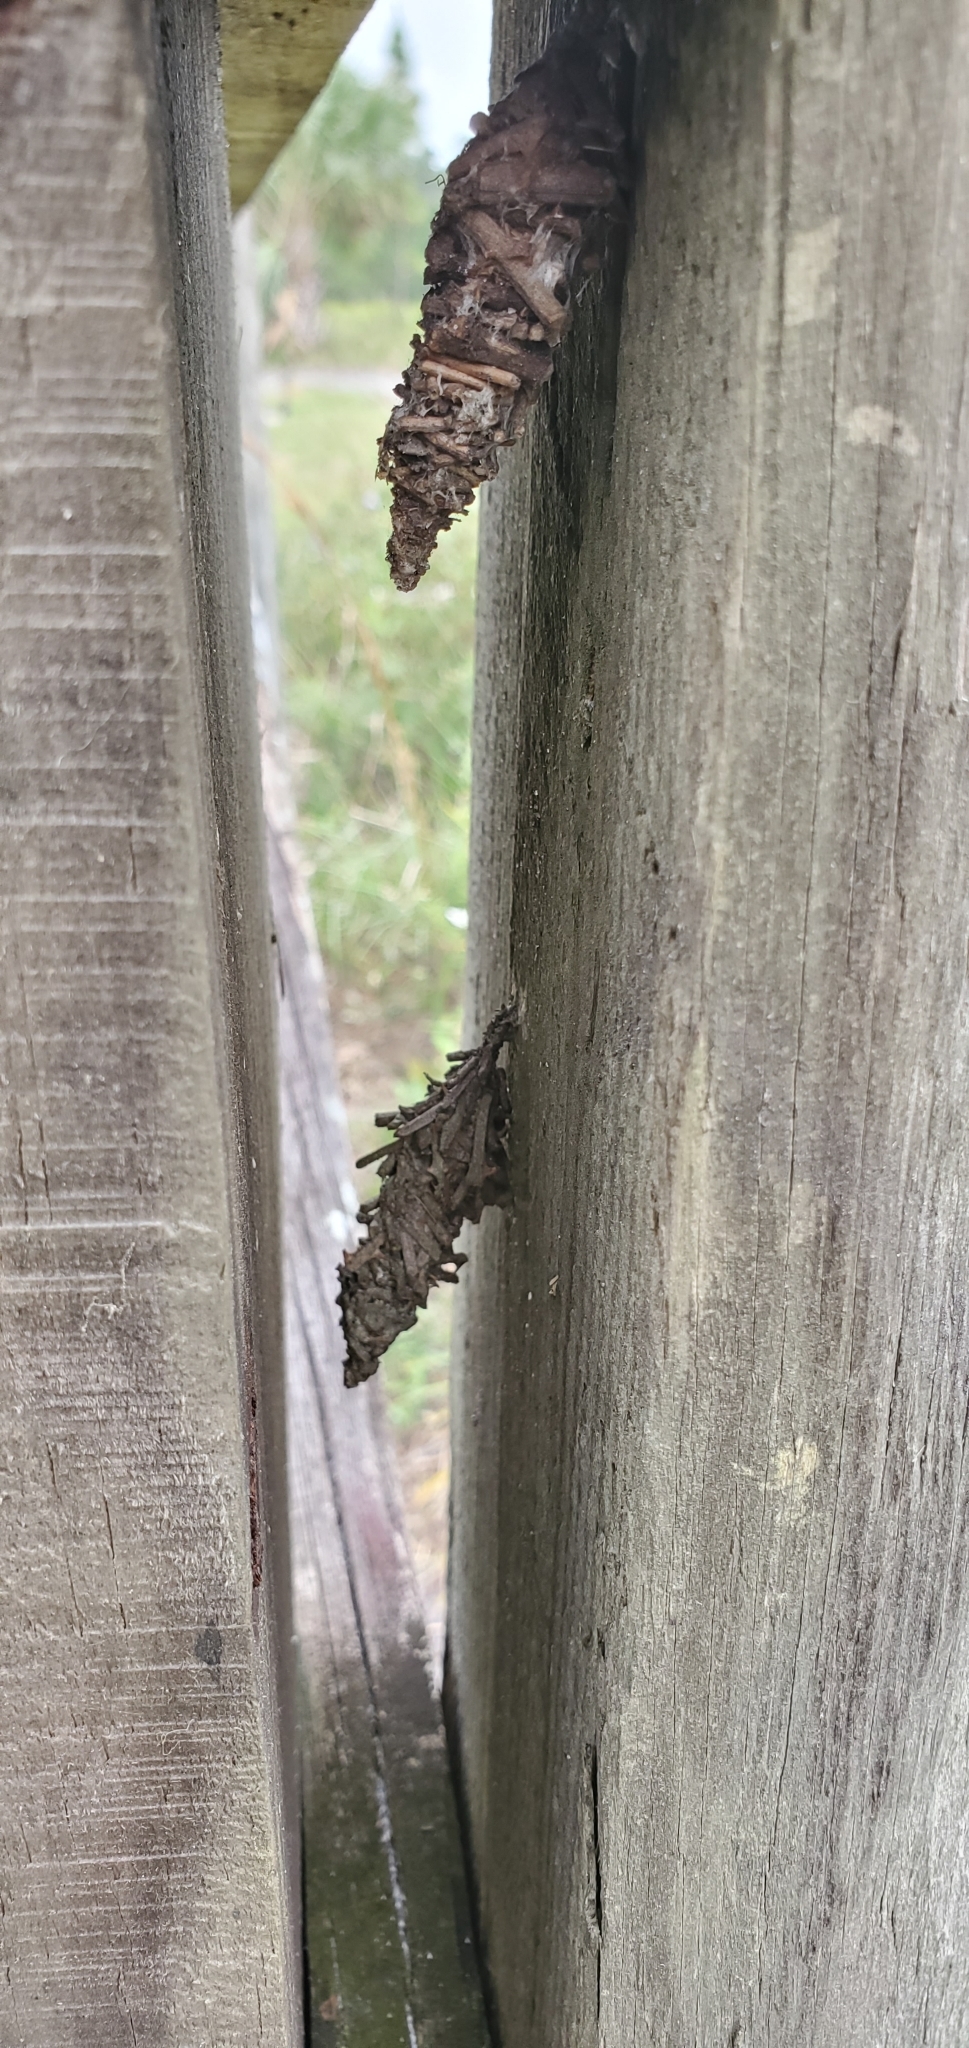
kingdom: Animalia
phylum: Arthropoda
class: Insecta
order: Lepidoptera
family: Psychidae
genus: Oiketicus
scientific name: Oiketicus
